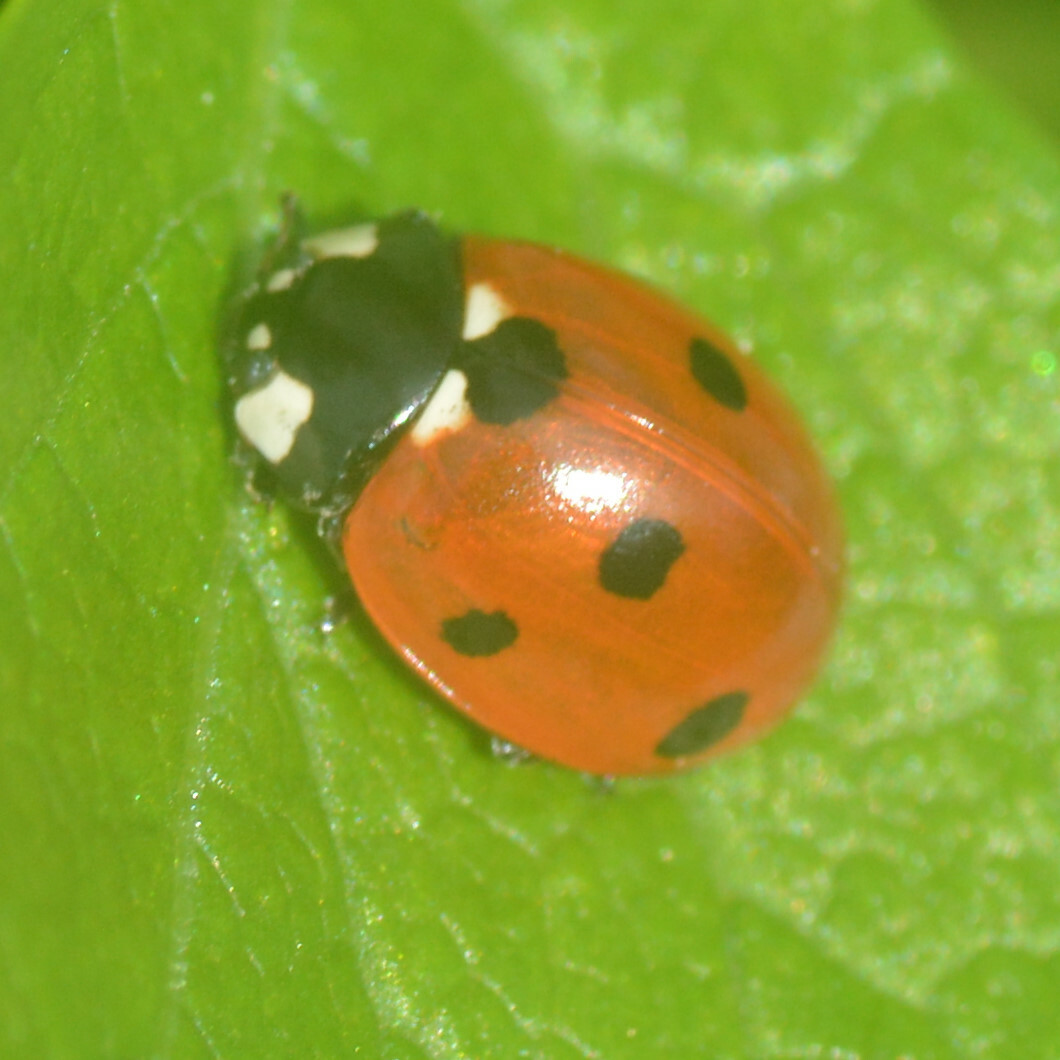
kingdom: Animalia
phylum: Arthropoda
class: Insecta
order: Coleoptera
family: Coccinellidae
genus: Coccinella
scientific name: Coccinella septempunctata
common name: Sevenspotted lady beetle
